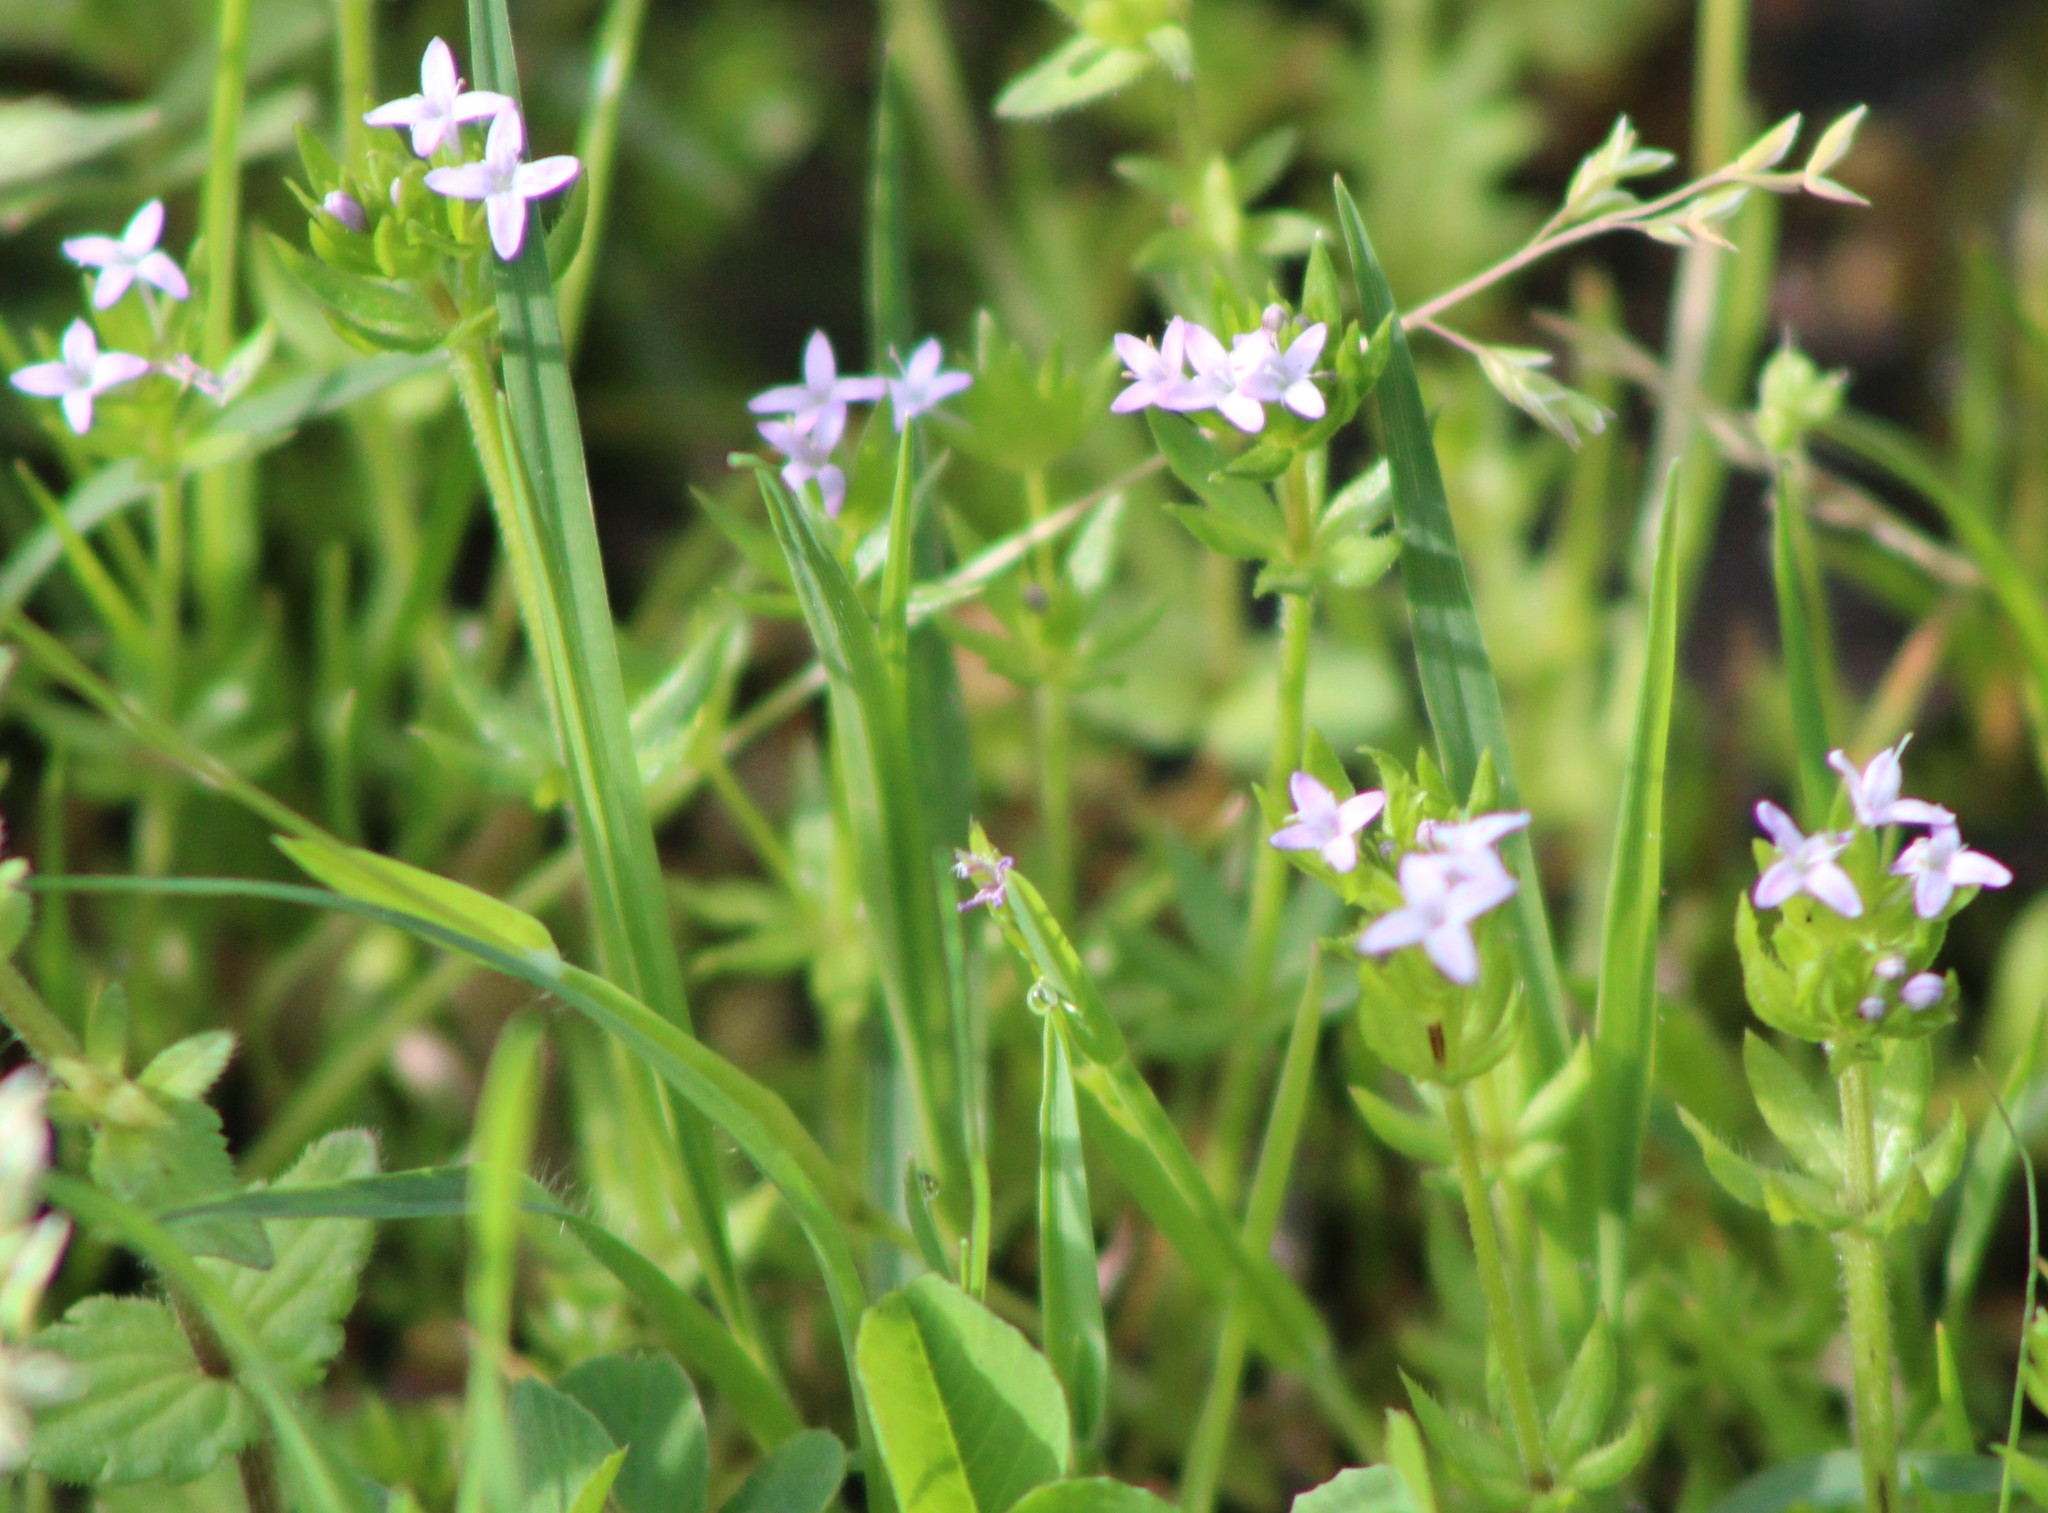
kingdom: Plantae
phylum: Tracheophyta
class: Magnoliopsida
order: Gentianales
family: Rubiaceae
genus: Sherardia
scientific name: Sherardia arvensis
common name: Field madder
